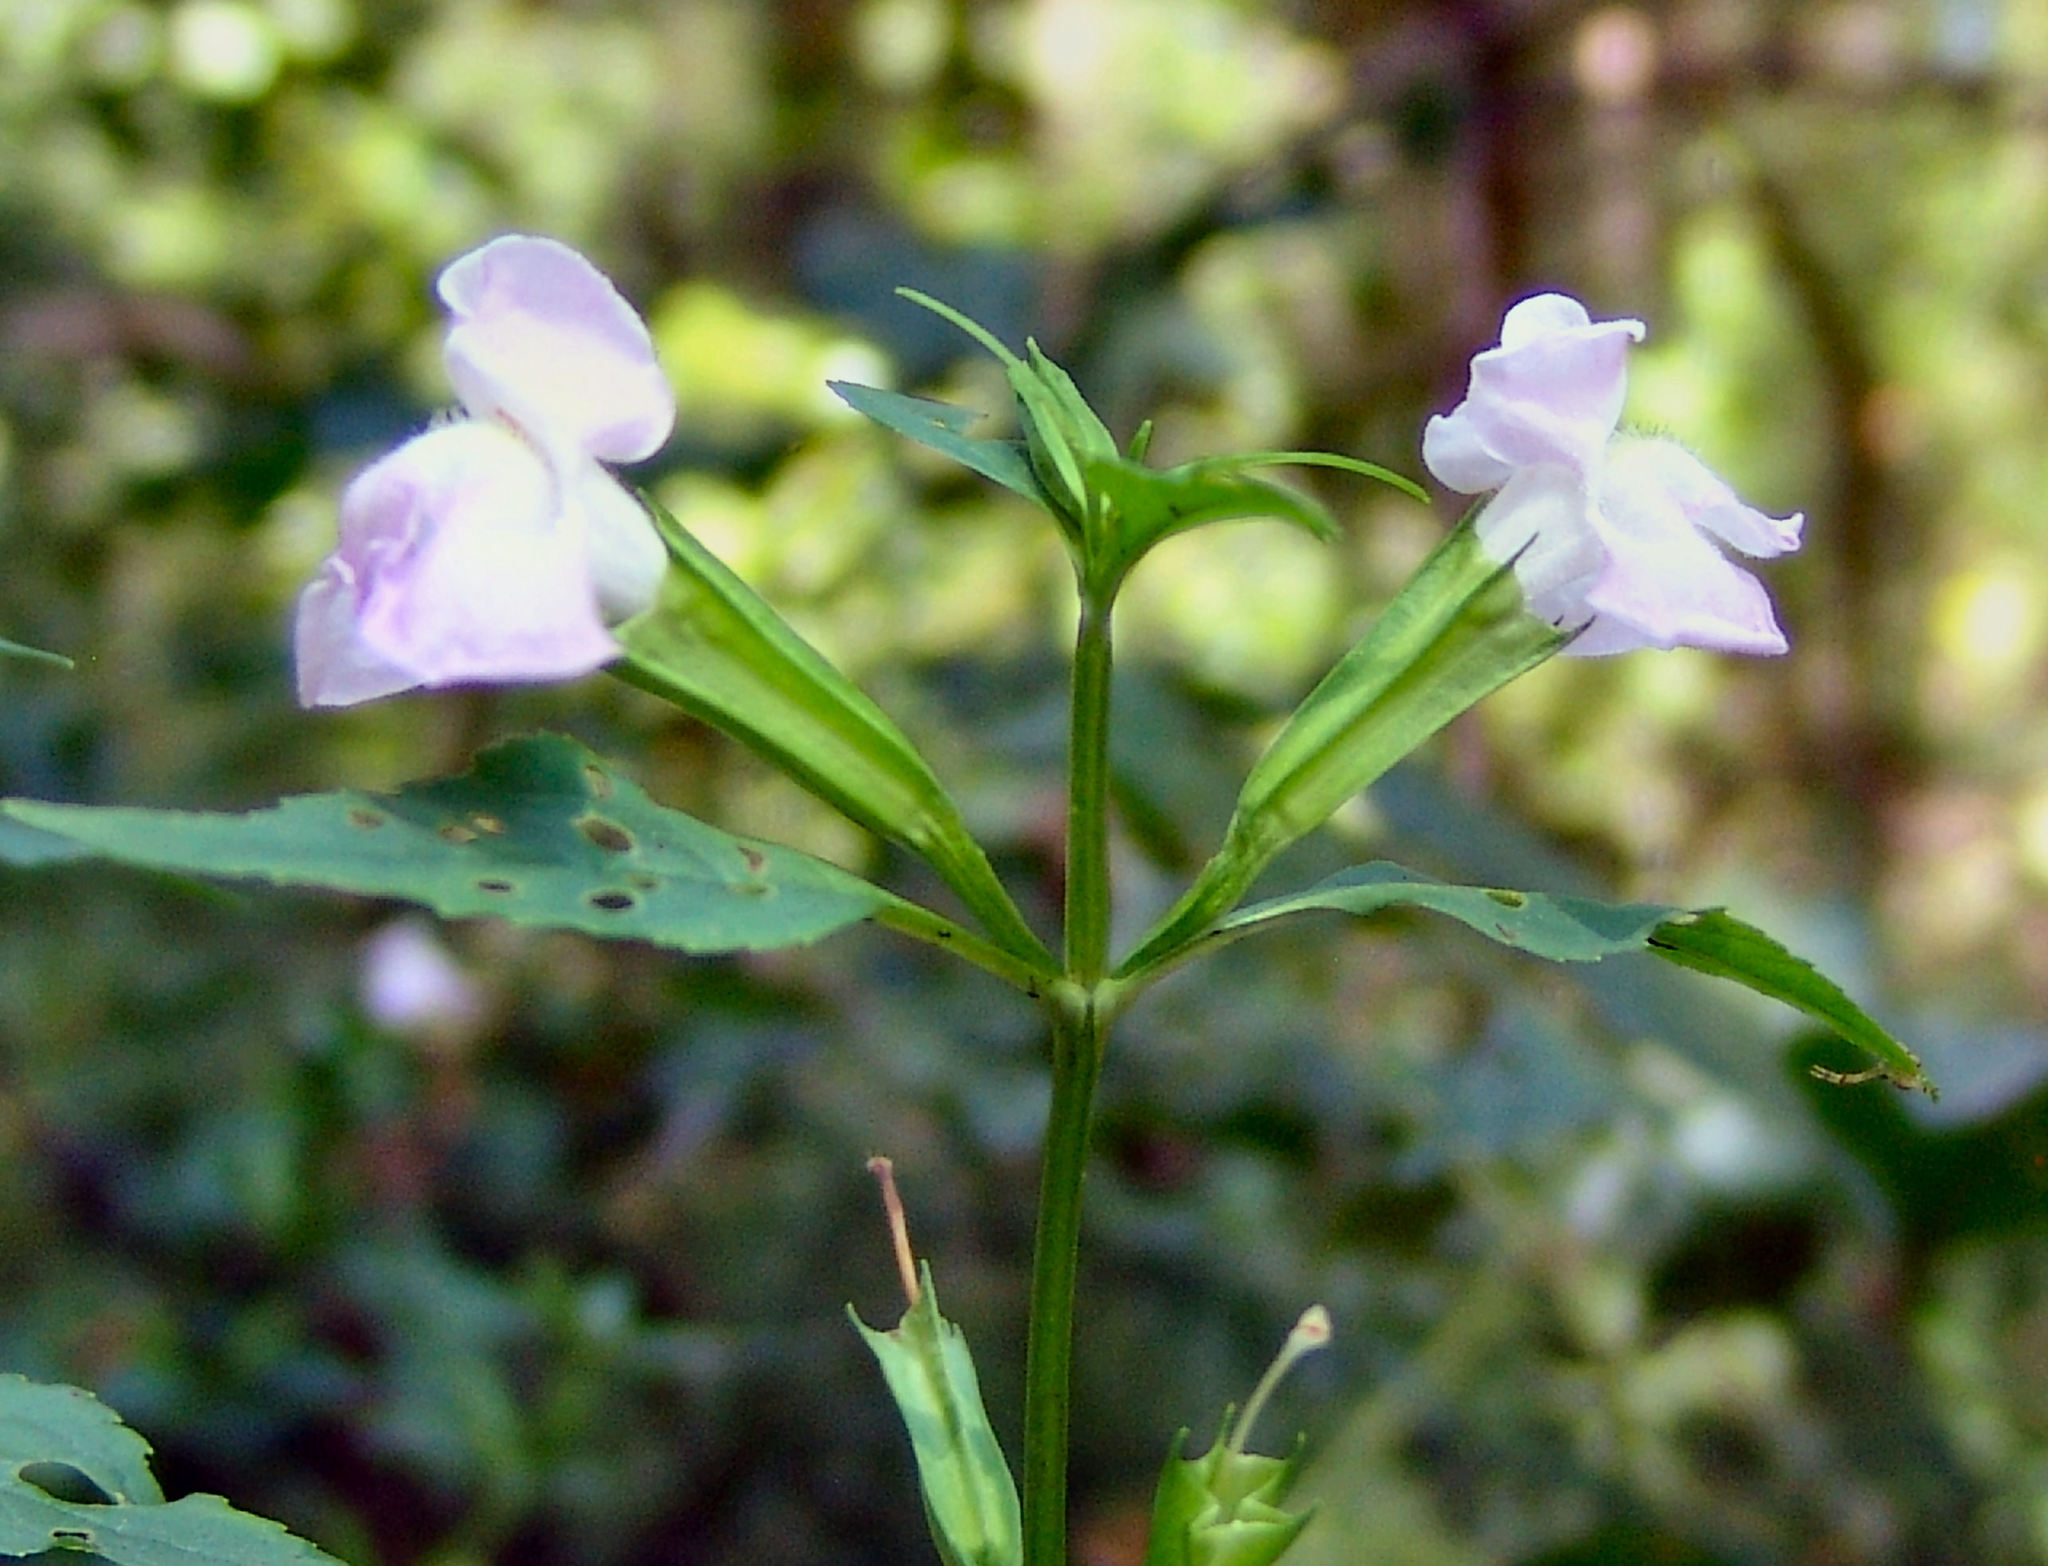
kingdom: Plantae
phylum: Tracheophyta
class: Magnoliopsida
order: Lamiales
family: Phrymaceae
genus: Mimulus
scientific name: Mimulus alatus
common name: Sharp-wing monkey-flower
